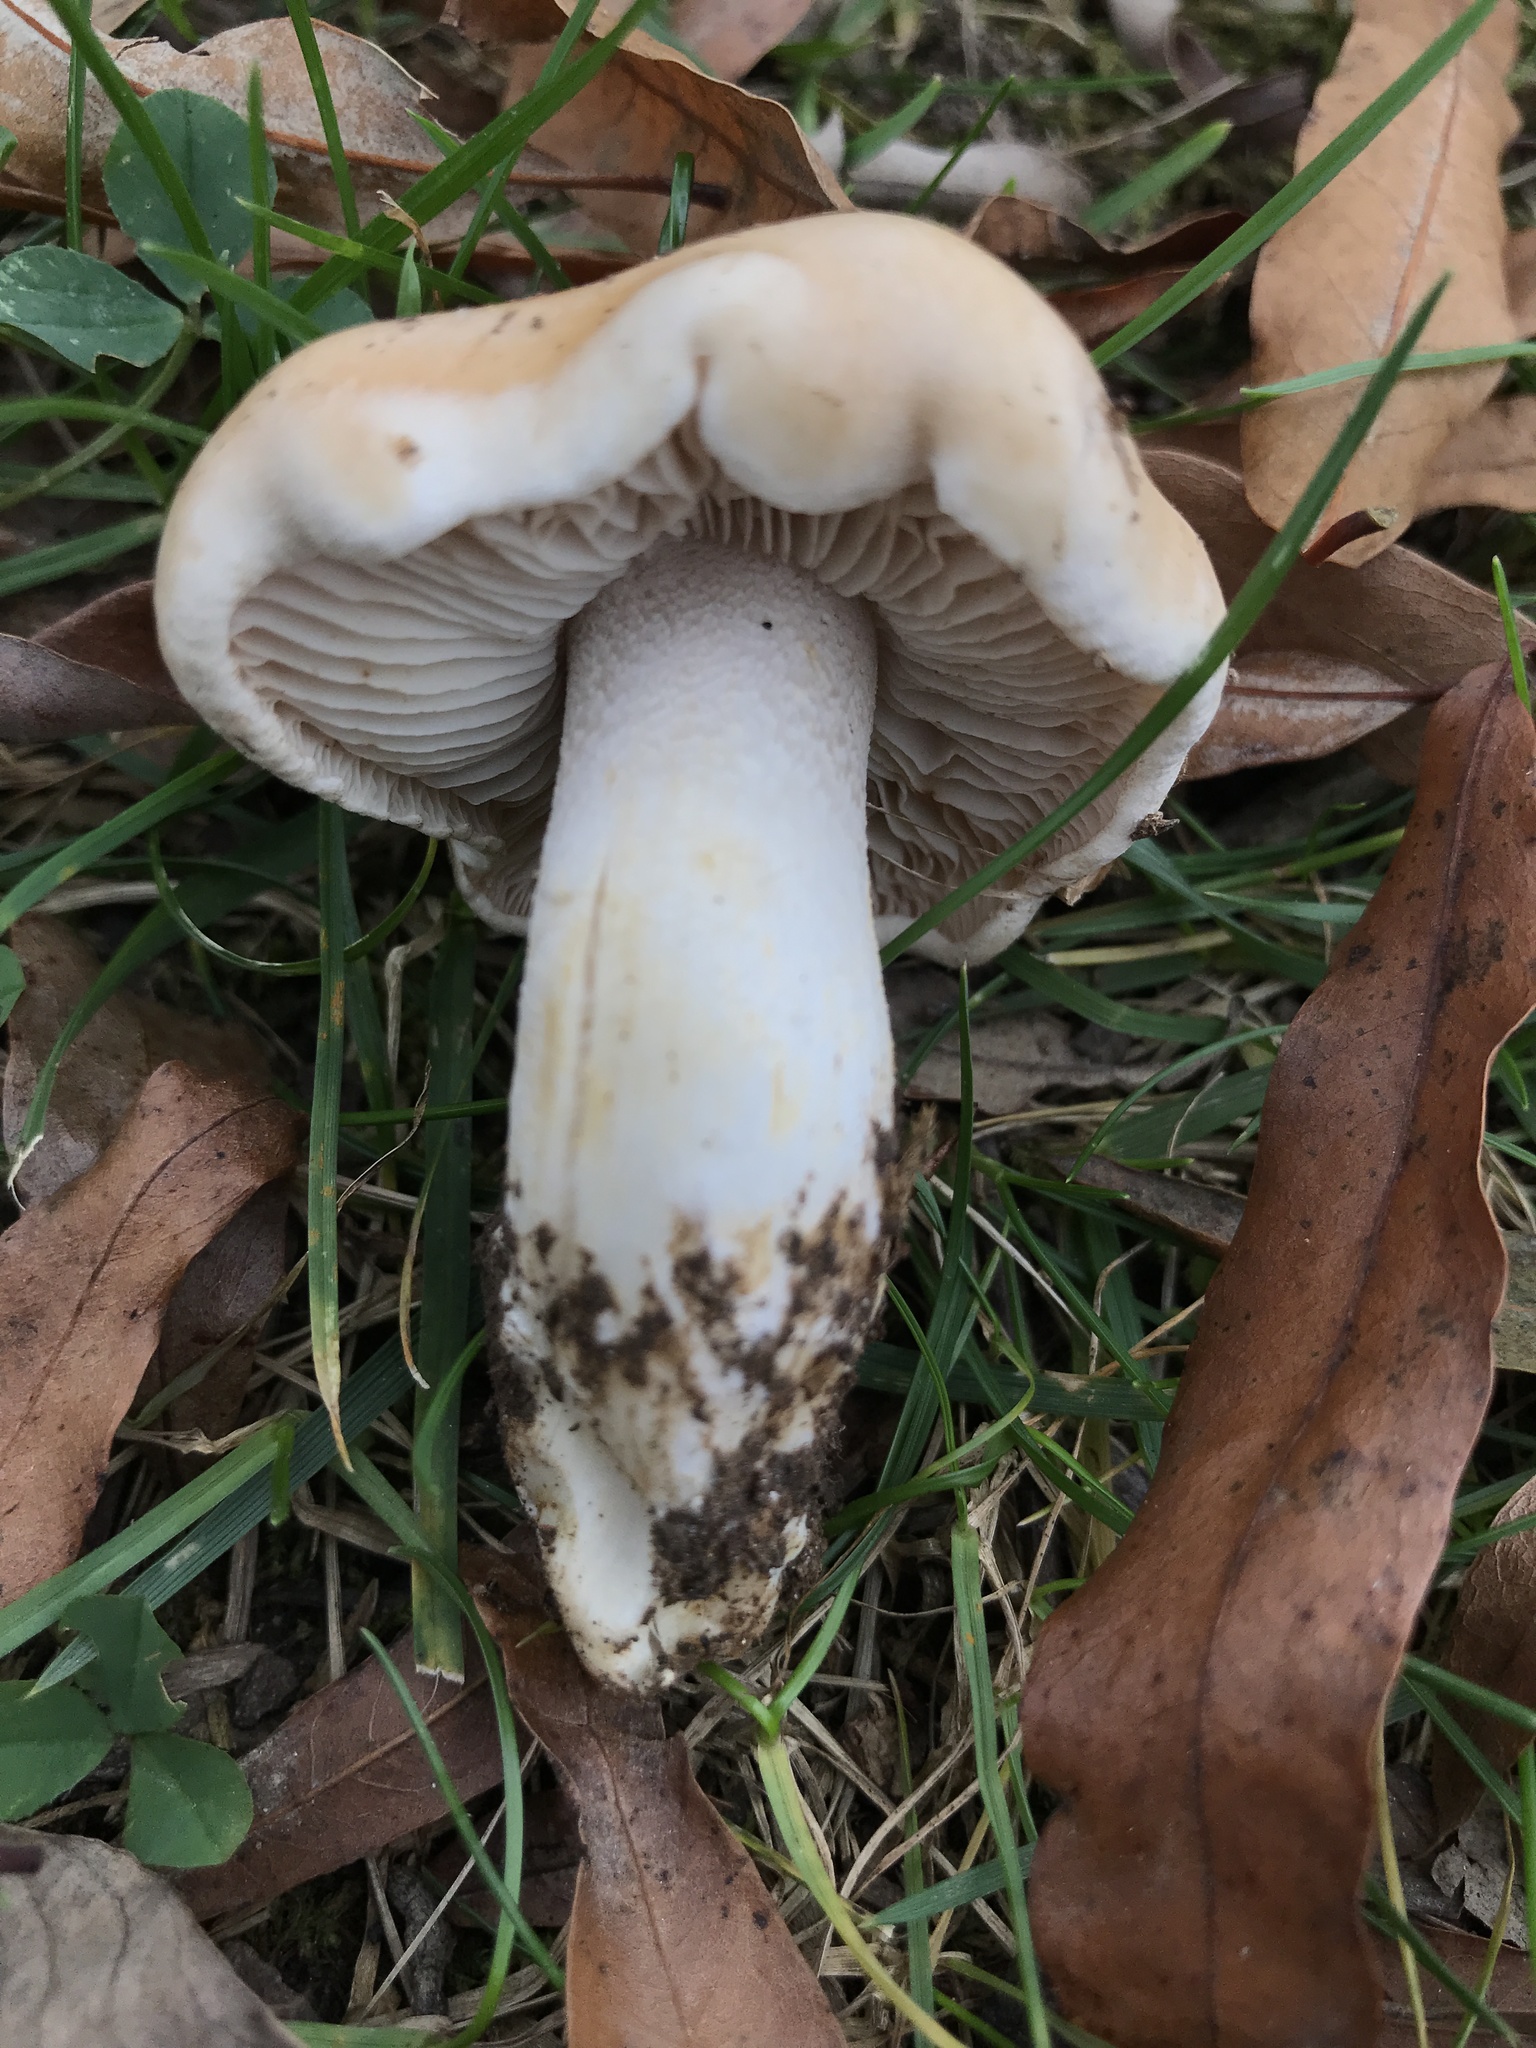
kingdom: Fungi
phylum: Basidiomycota
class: Agaricomycetes
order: Agaricales
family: Hymenogastraceae
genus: Hebeloma
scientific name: Hebeloma crustuliniforme
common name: Poison pie
